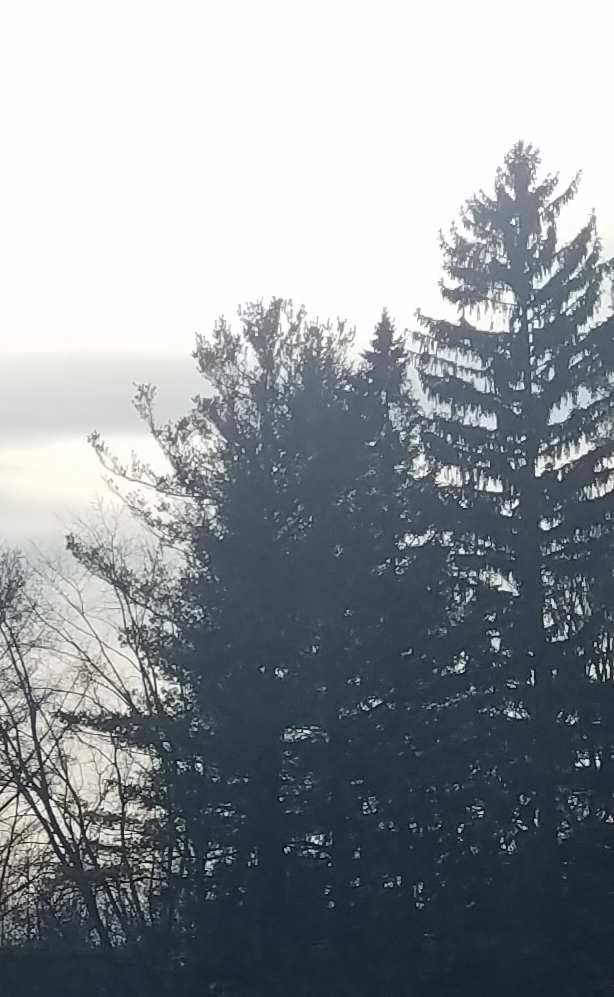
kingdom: Plantae
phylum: Tracheophyta
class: Pinopsida
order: Pinales
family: Pinaceae
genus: Pinus
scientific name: Pinus strobus
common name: Weymouth pine
